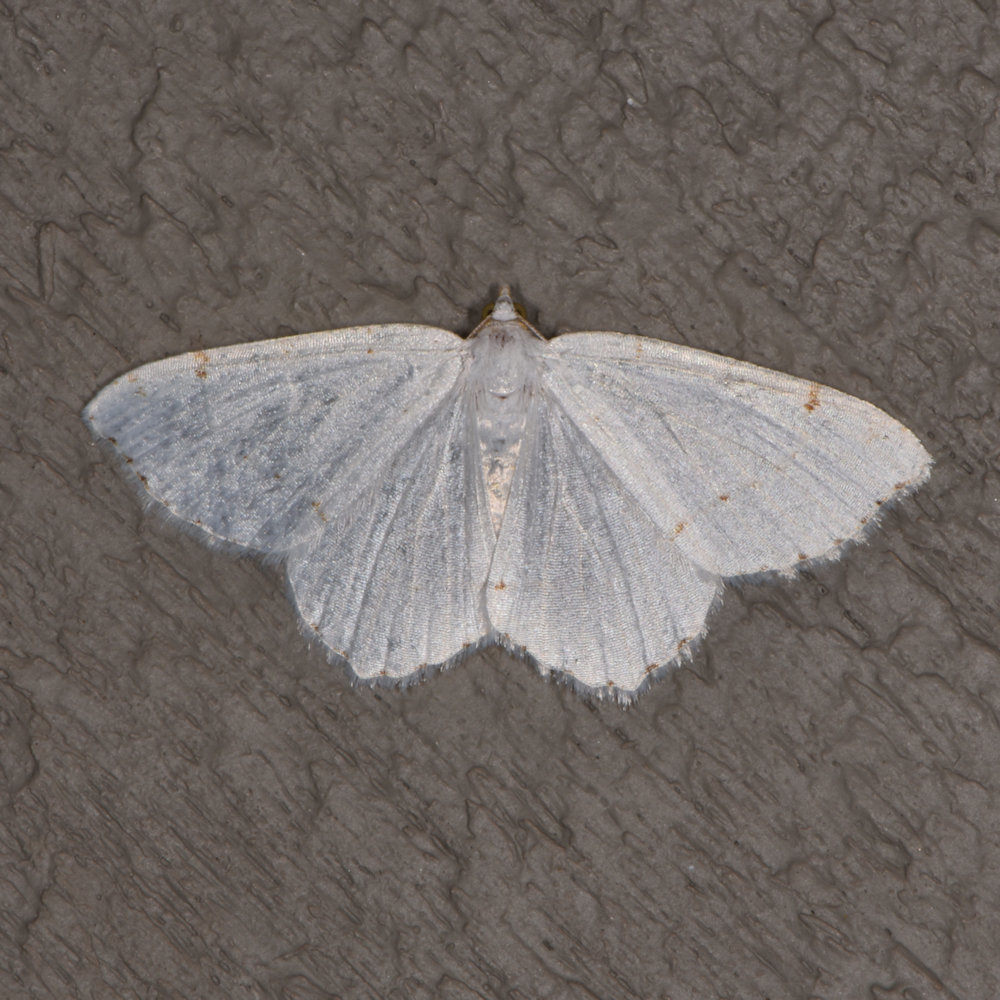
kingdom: Animalia
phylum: Arthropoda
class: Insecta
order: Lepidoptera
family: Geometridae
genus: Macaria
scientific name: Macaria pustularia
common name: Lesser maple spanworm moth
